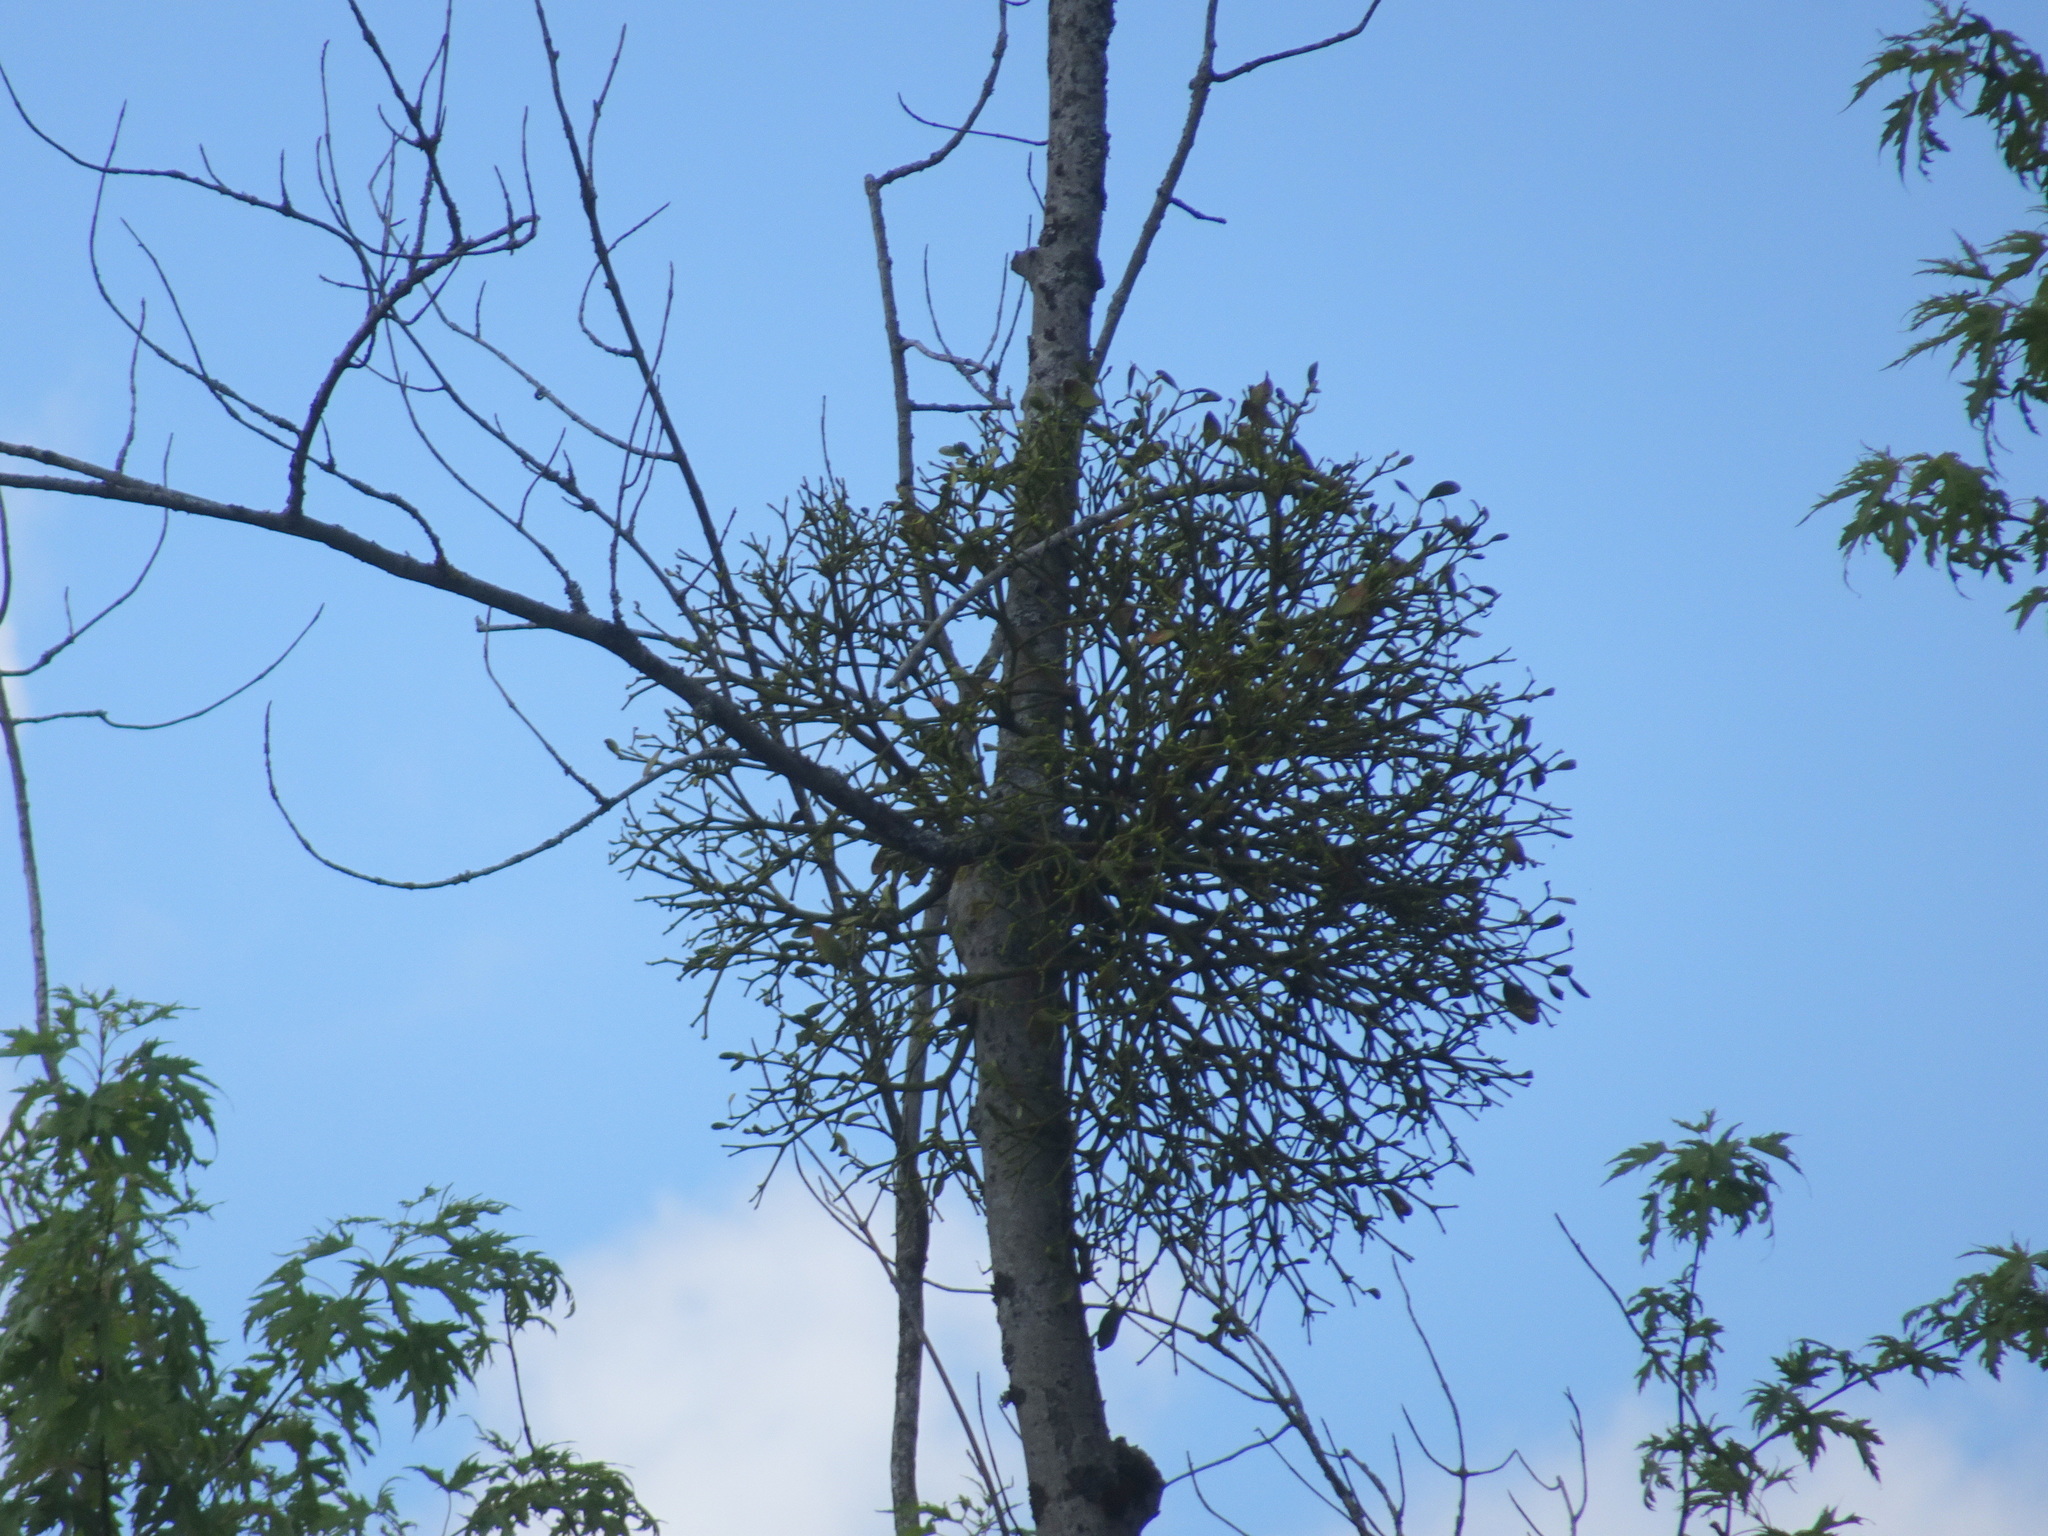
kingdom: Plantae
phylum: Tracheophyta
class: Magnoliopsida
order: Santalales
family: Viscaceae
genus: Viscum
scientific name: Viscum album
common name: Mistletoe
